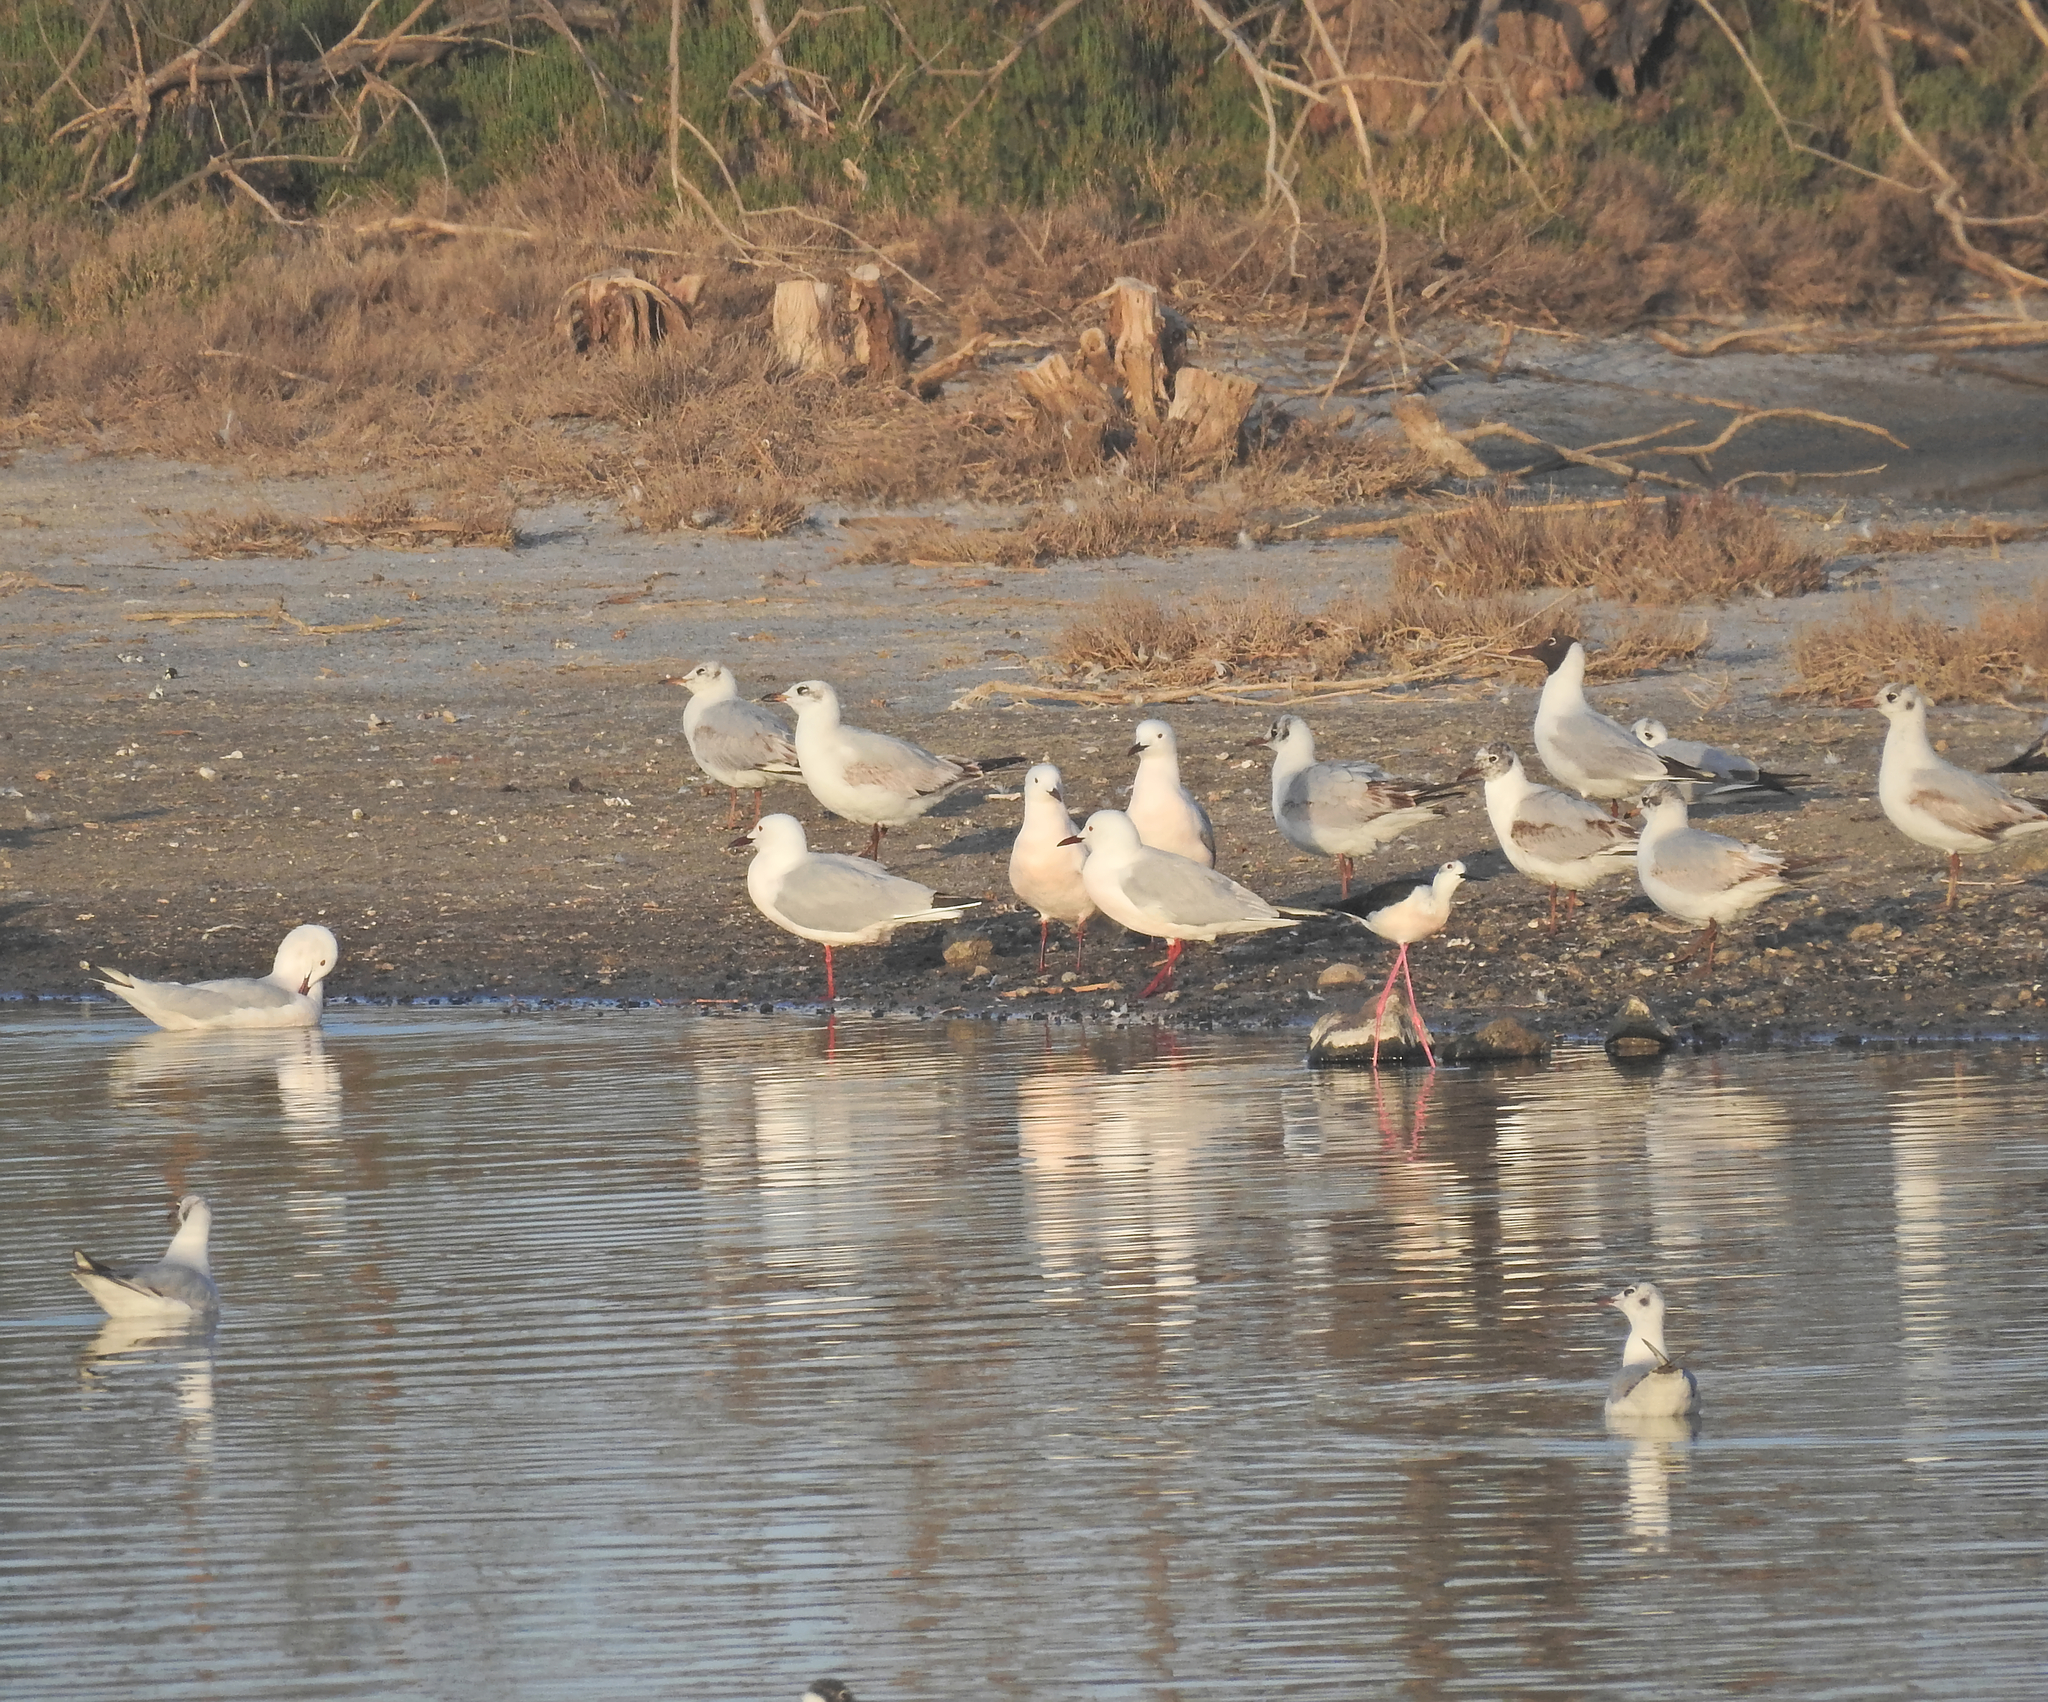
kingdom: Animalia
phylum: Chordata
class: Aves
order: Charadriiformes
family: Laridae
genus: Ichthyaetus
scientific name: Ichthyaetus melanocephalus
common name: Mediterranean gull
